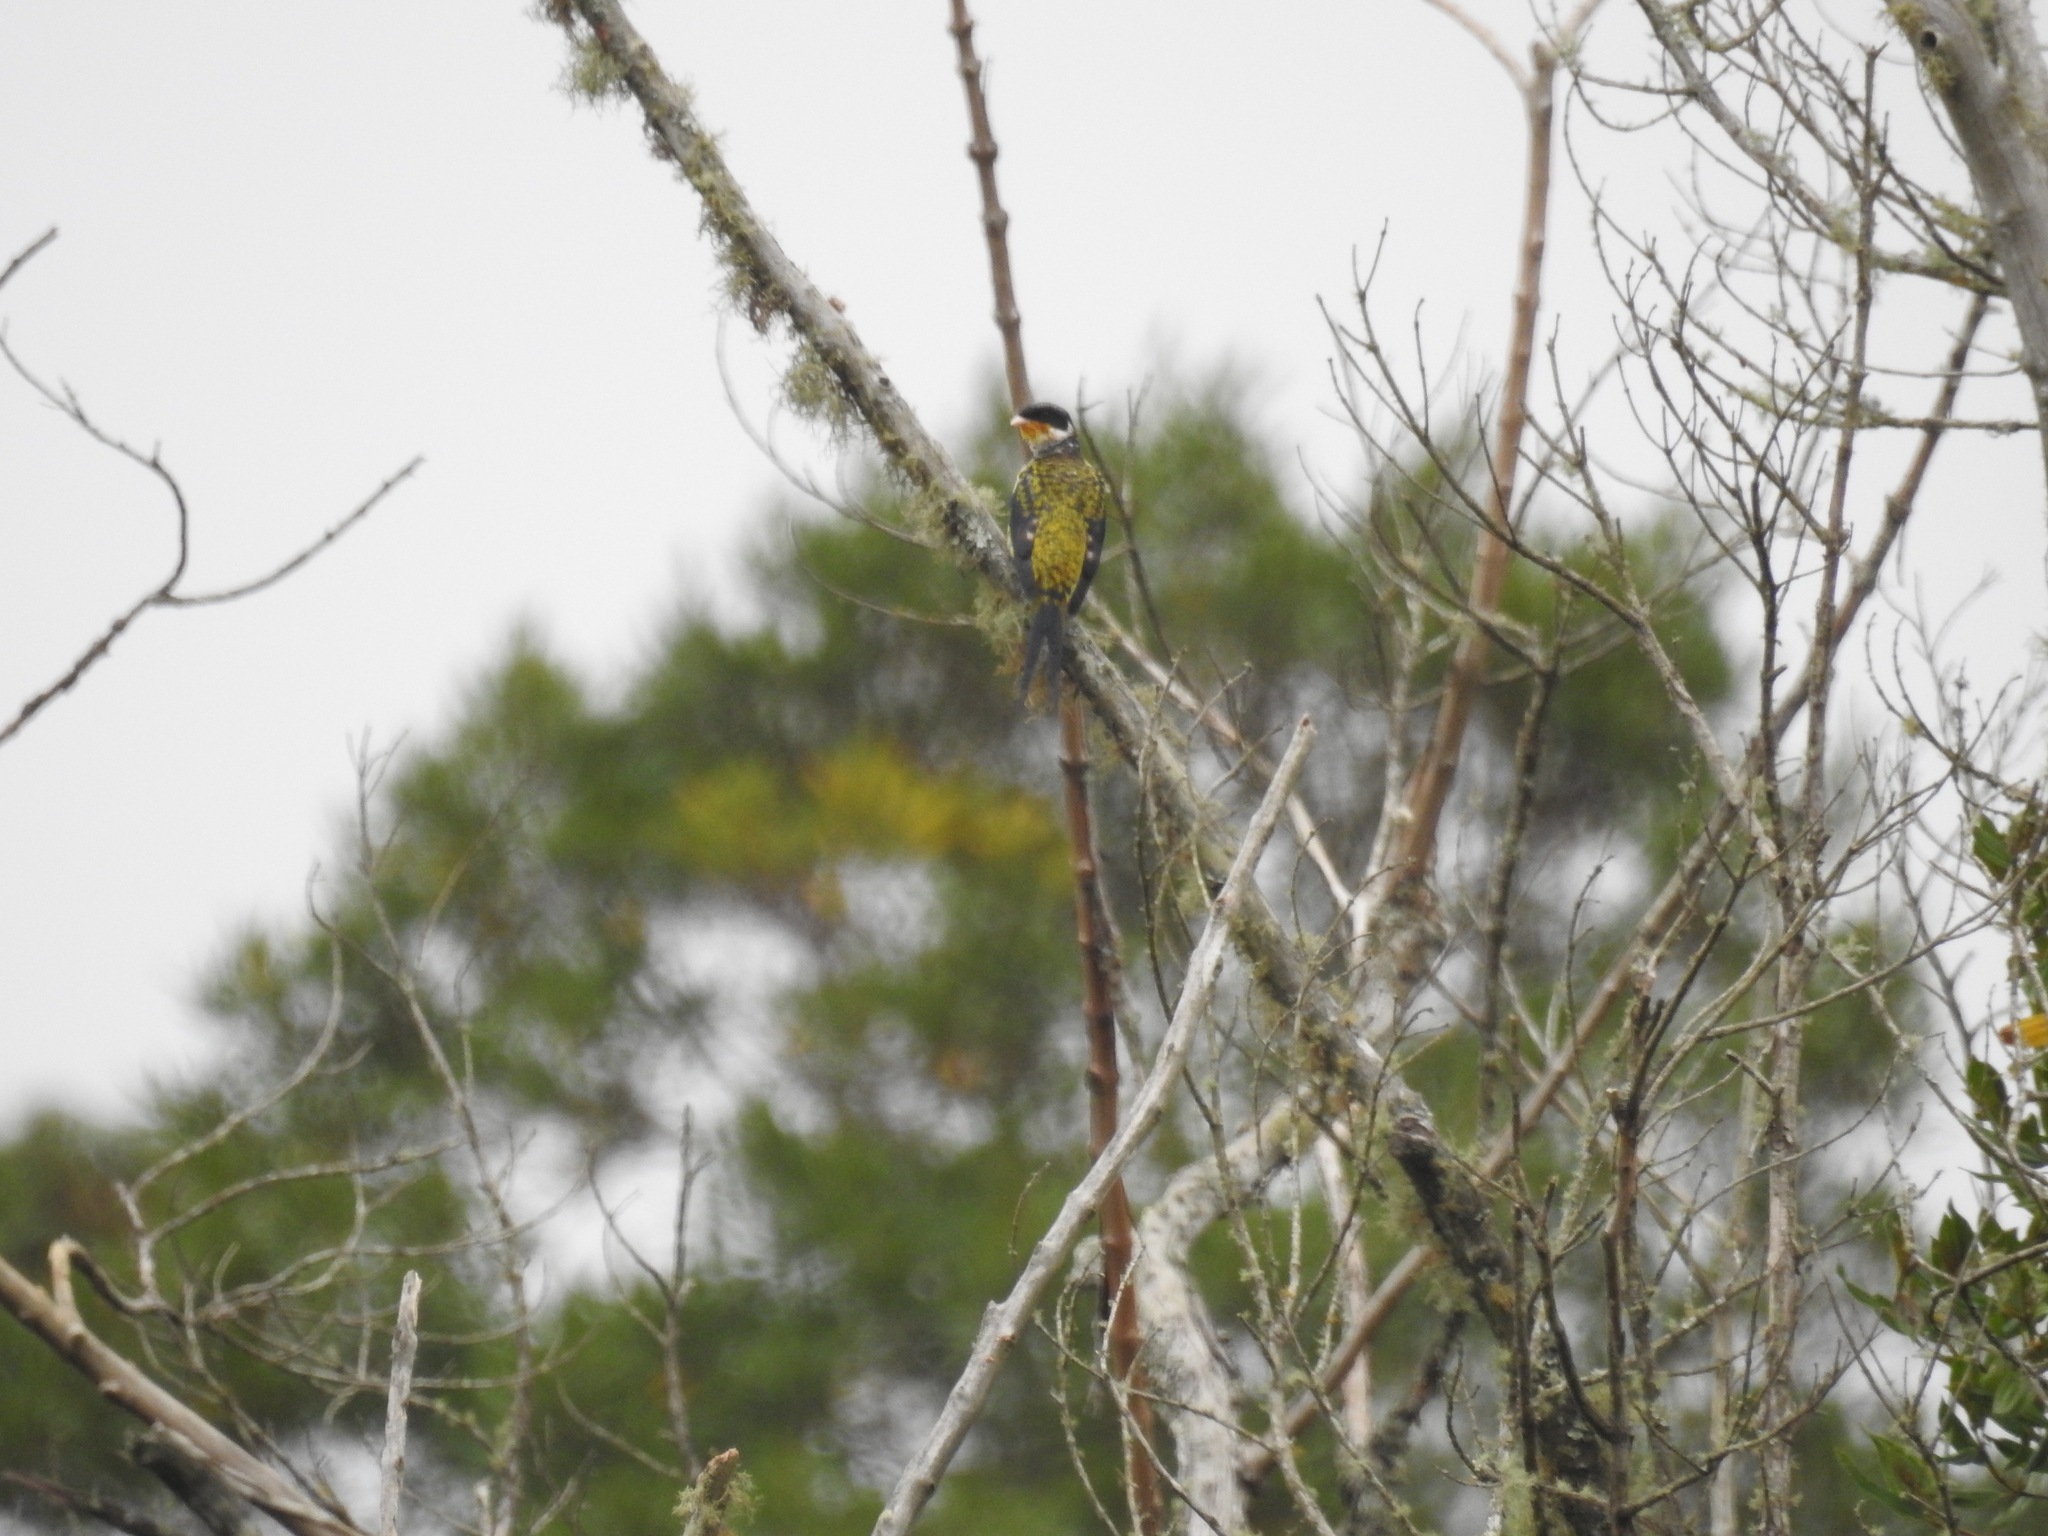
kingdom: Animalia
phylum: Chordata
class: Aves
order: Passeriformes
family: Cotingidae
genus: Phibalura
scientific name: Phibalura flavirostris
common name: Swallow-tailed cotinga
